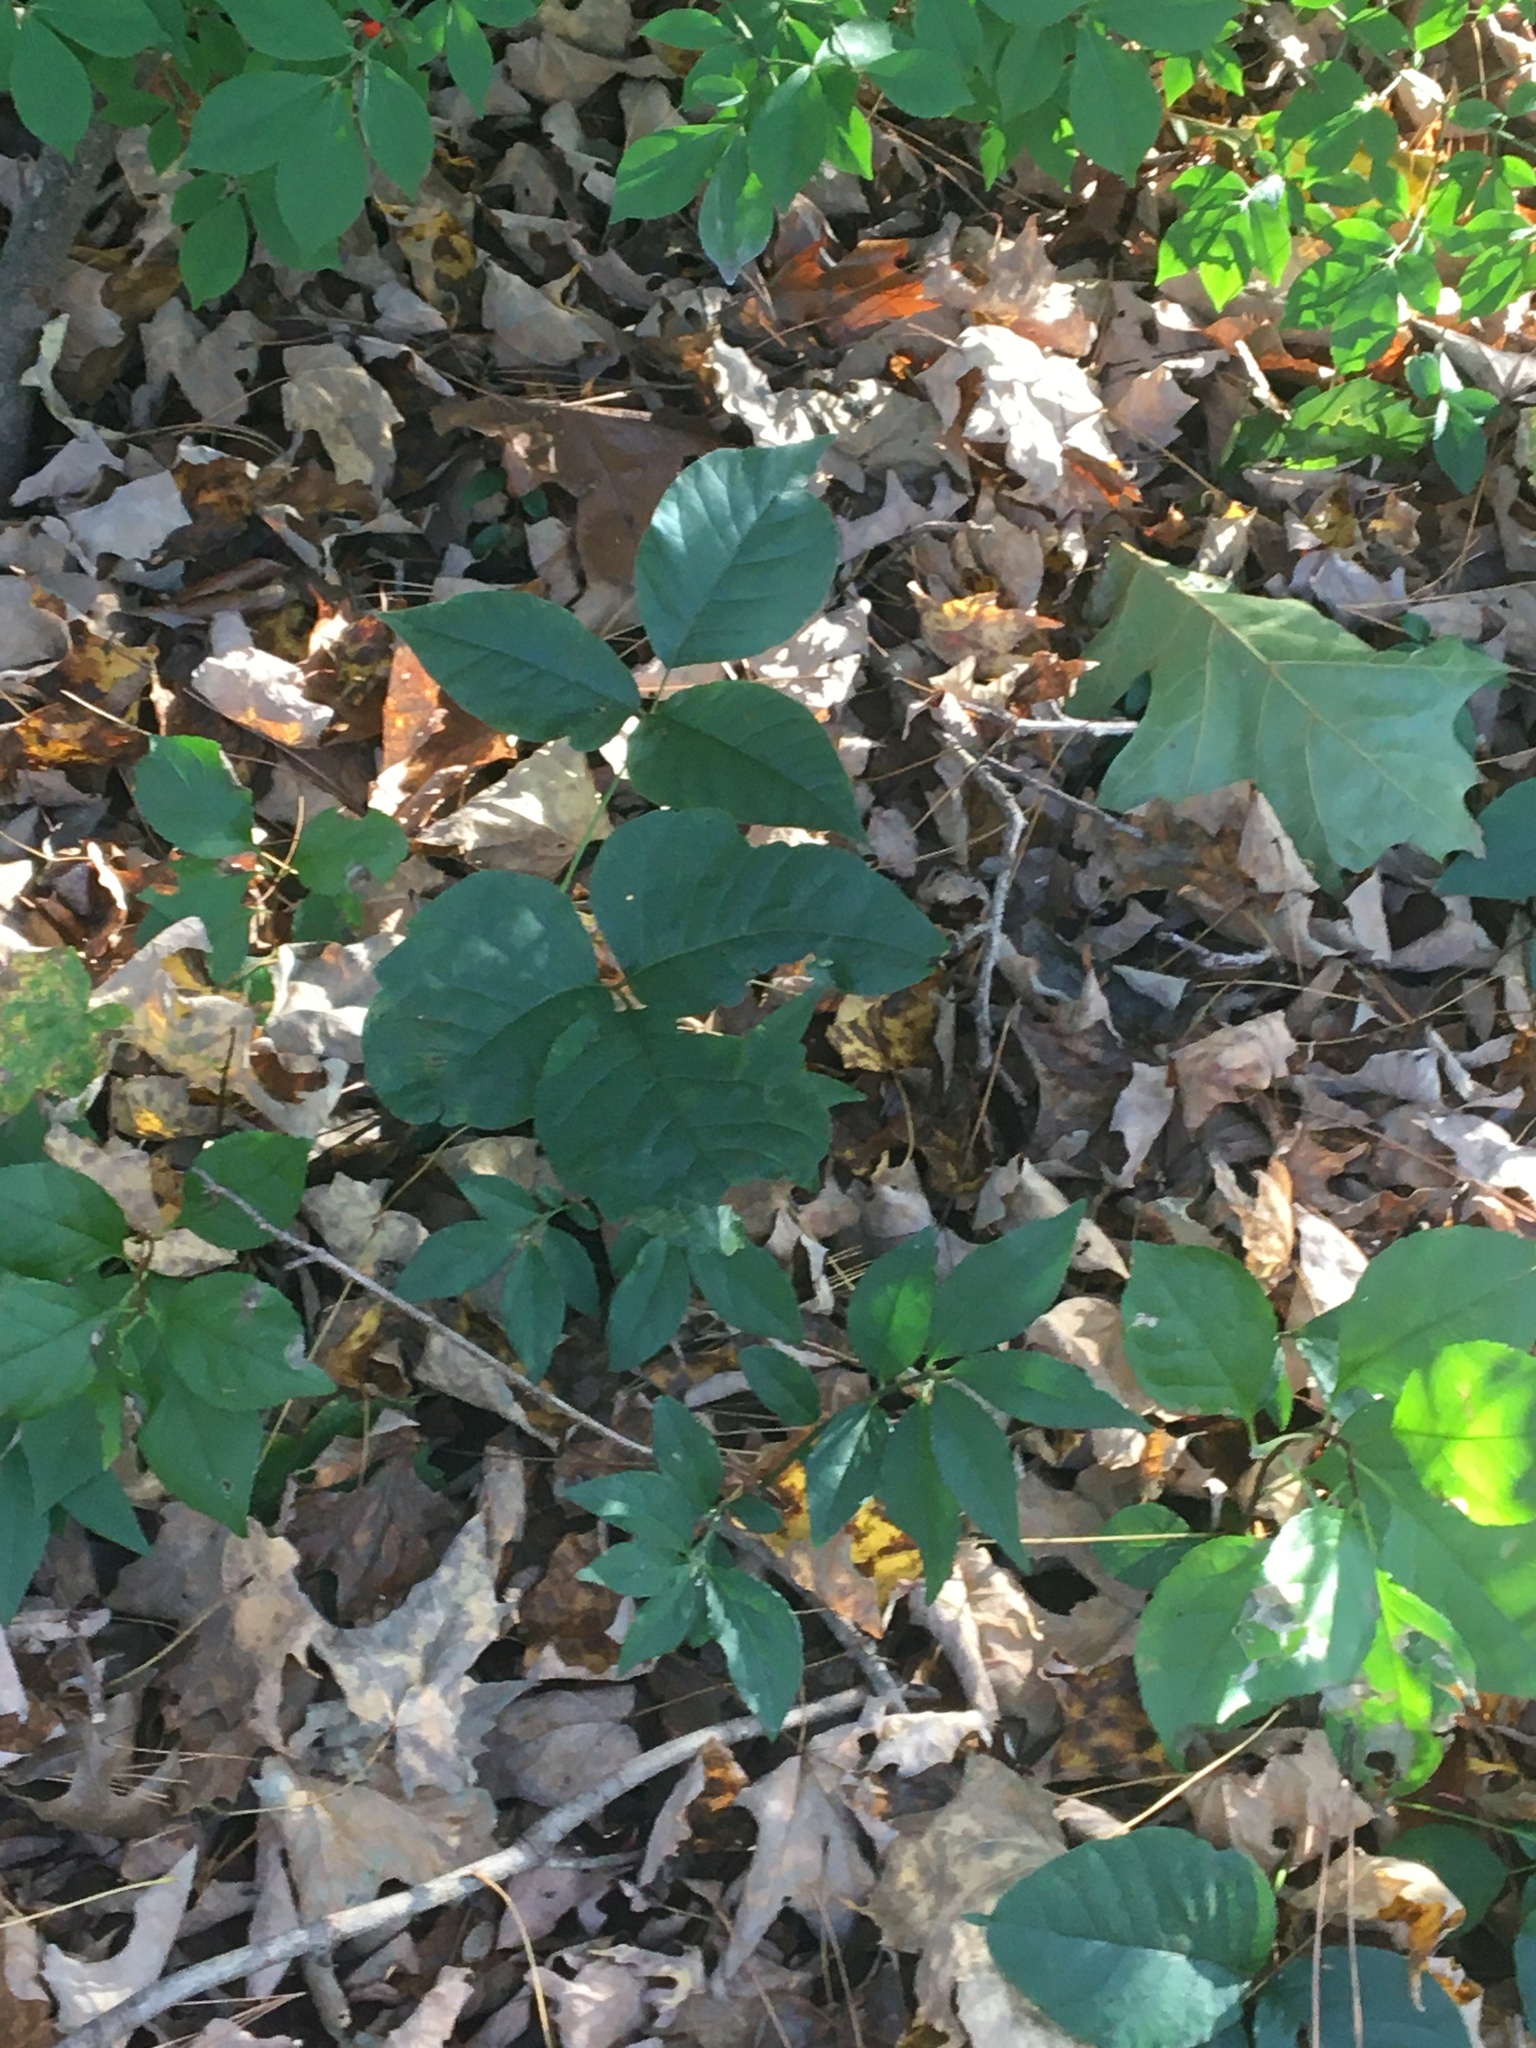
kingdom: Plantae
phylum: Tracheophyta
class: Magnoliopsida
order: Sapindales
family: Anacardiaceae
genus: Toxicodendron
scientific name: Toxicodendron
